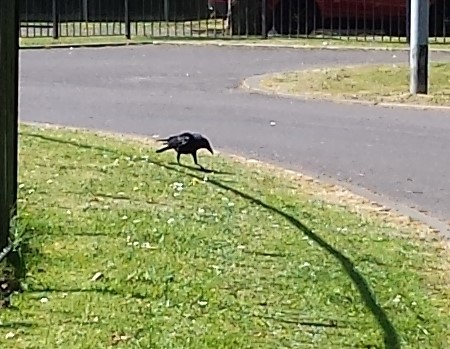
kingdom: Animalia
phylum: Chordata
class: Aves
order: Passeriformes
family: Corvidae
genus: Corvus
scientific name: Corvus corone
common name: Carrion crow
